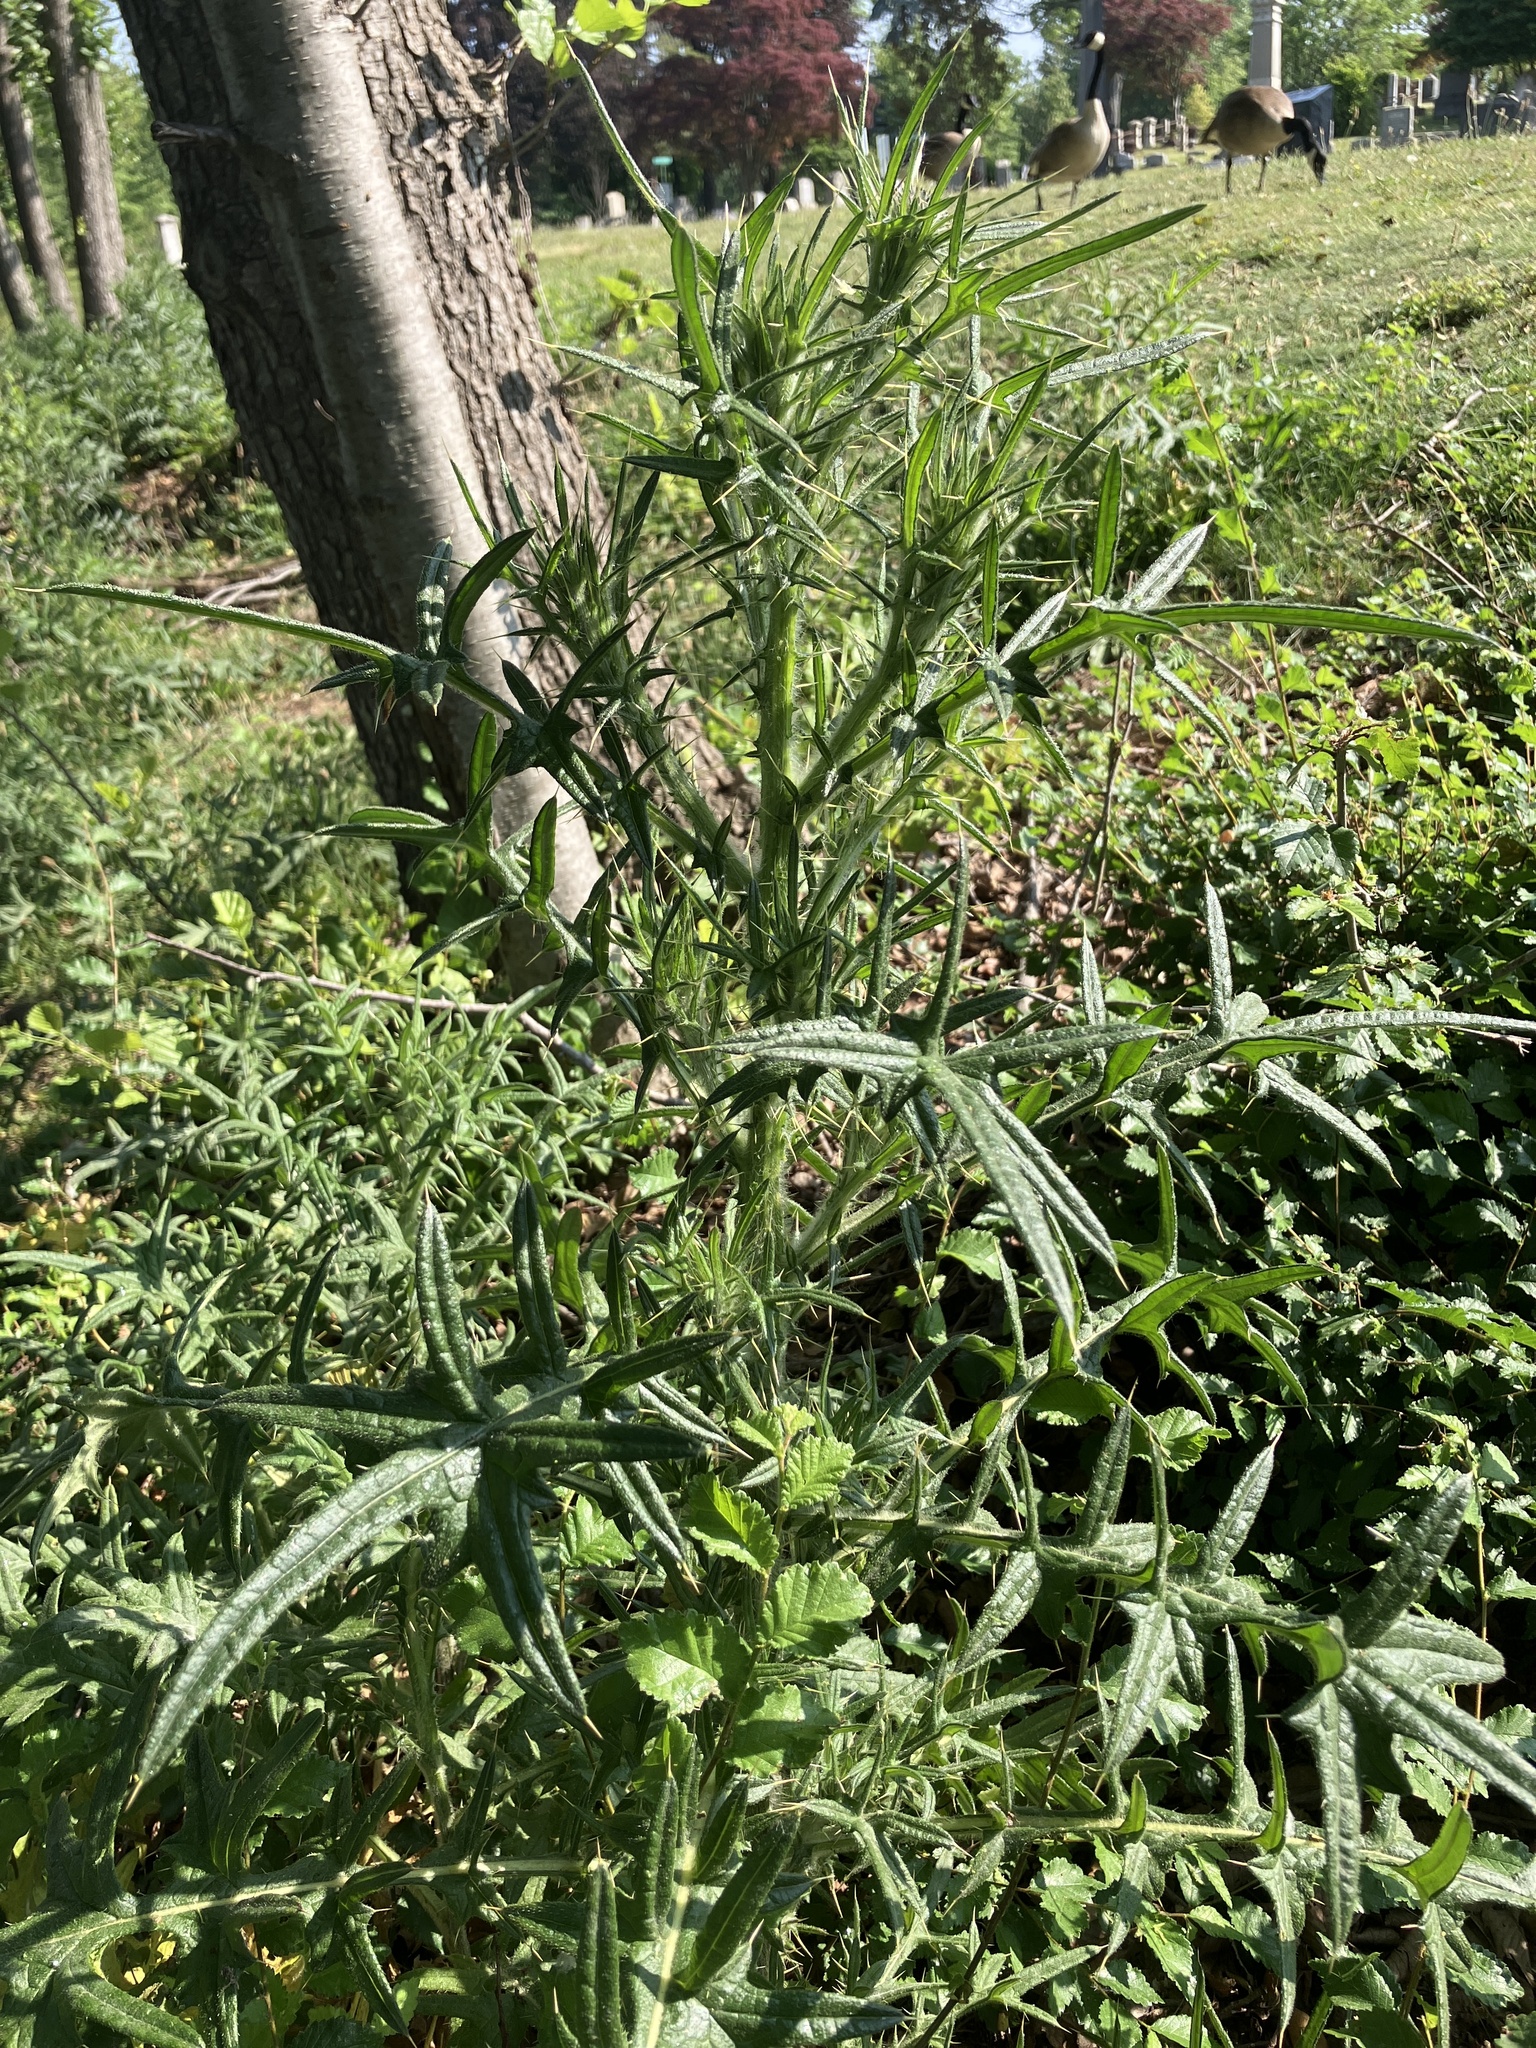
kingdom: Plantae
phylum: Tracheophyta
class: Magnoliopsida
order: Asterales
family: Asteraceae
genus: Cirsium
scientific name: Cirsium vulgare
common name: Bull thistle
